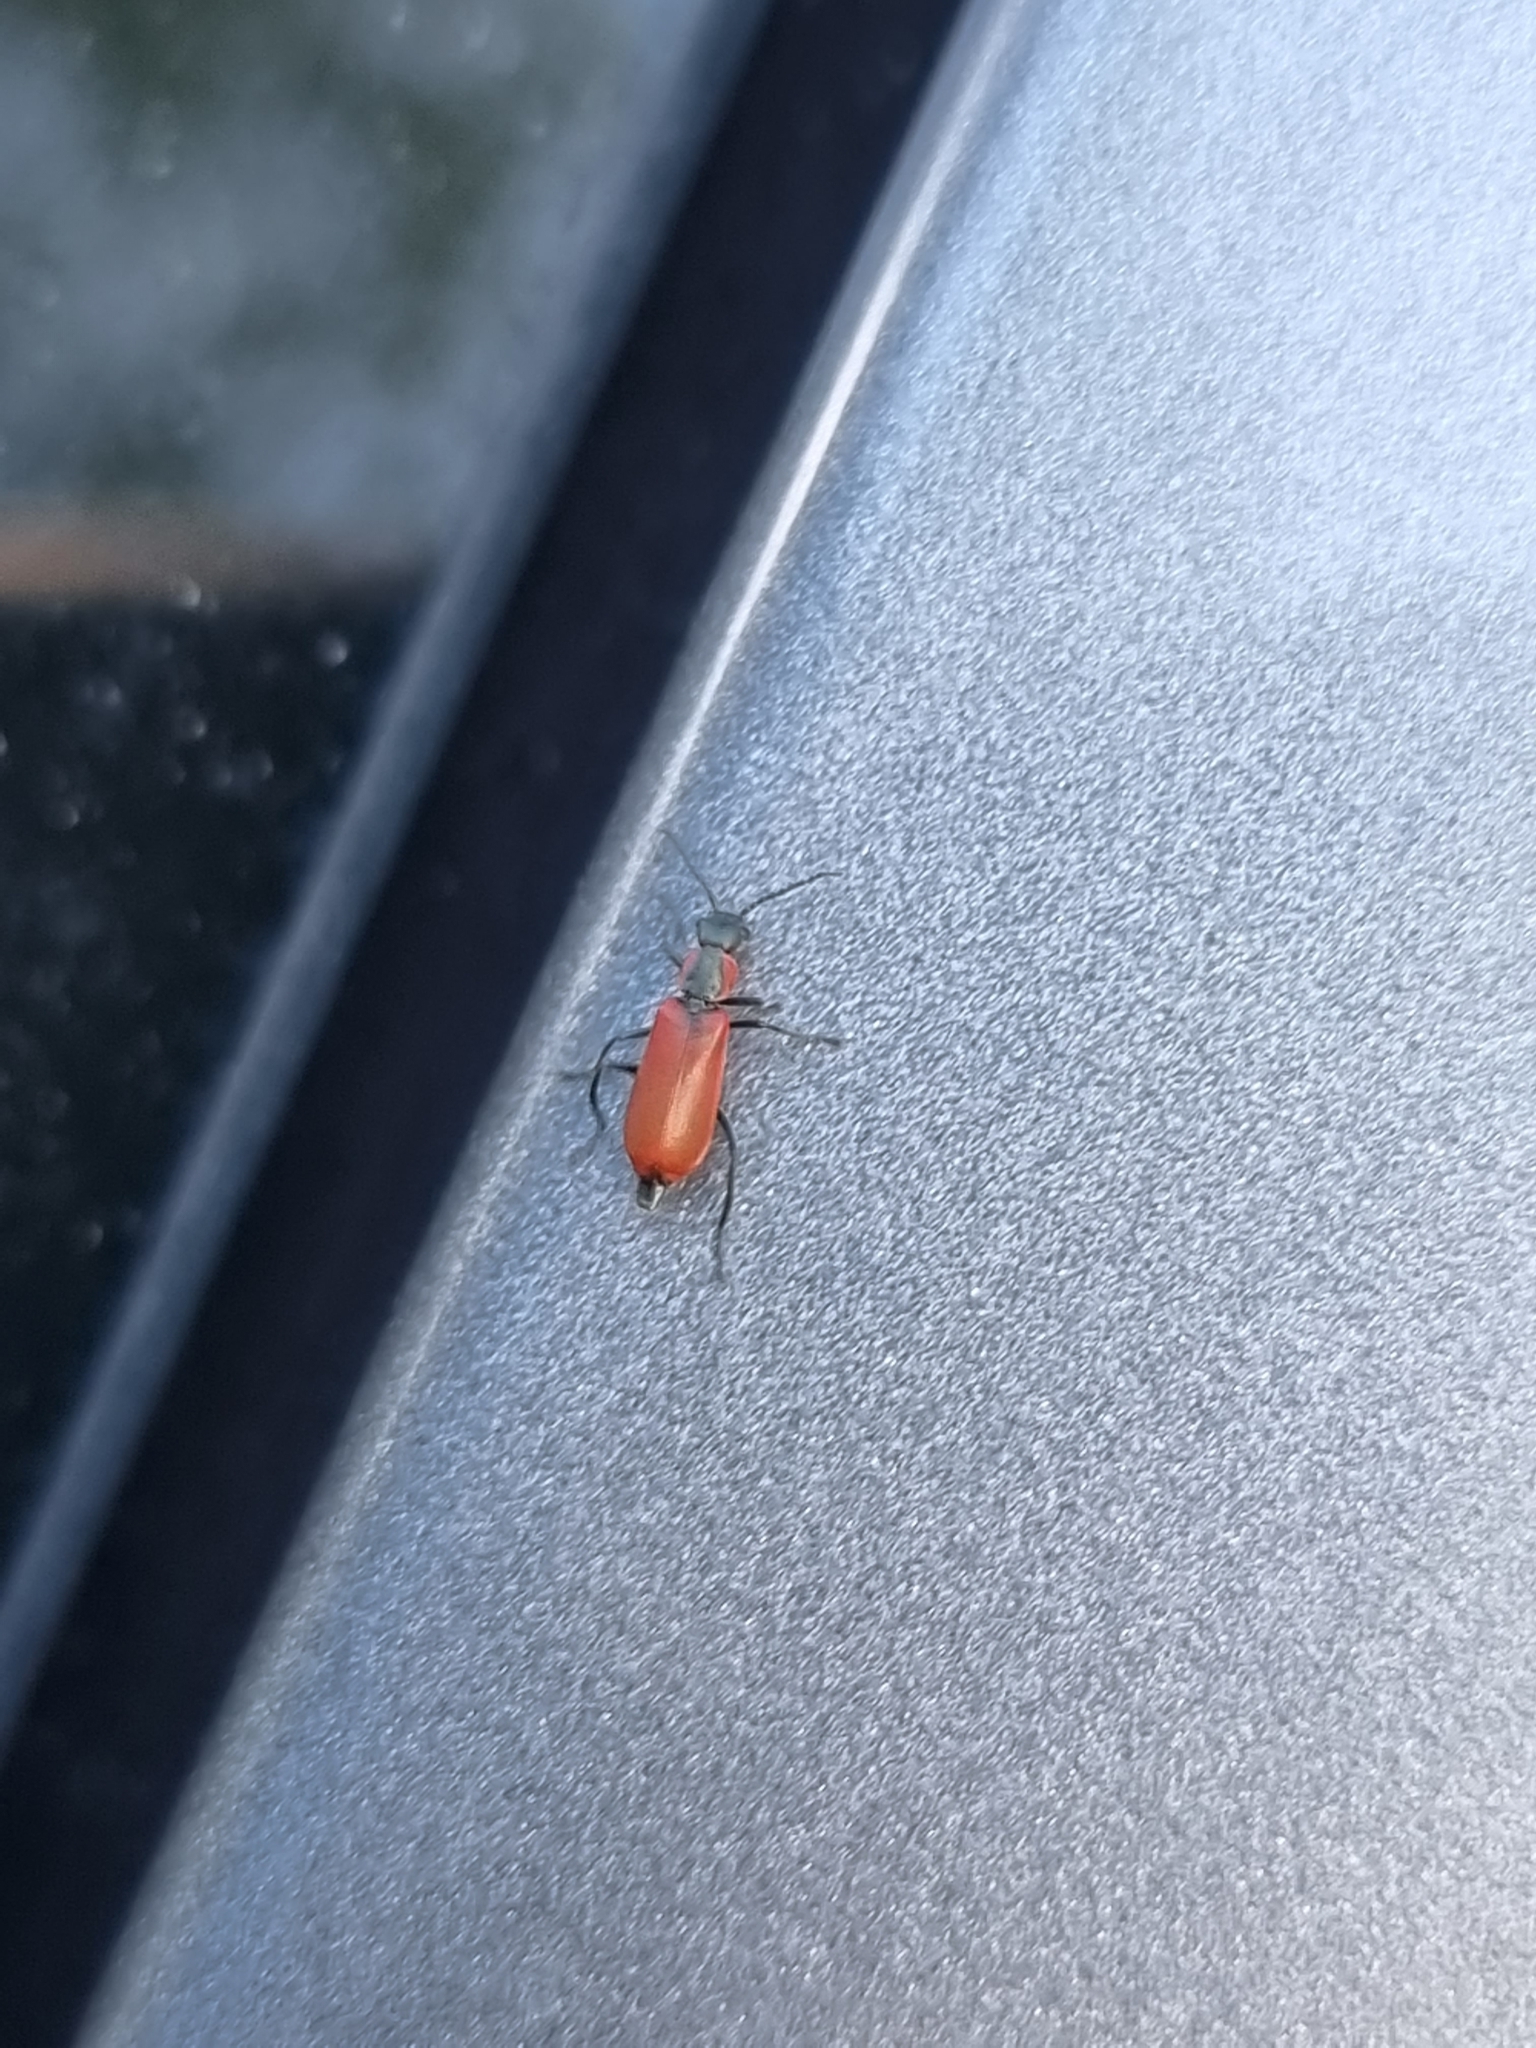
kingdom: Animalia
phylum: Arthropoda
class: Insecta
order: Coleoptera
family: Melyridae
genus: Anthocomus
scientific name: Anthocomus rufus
